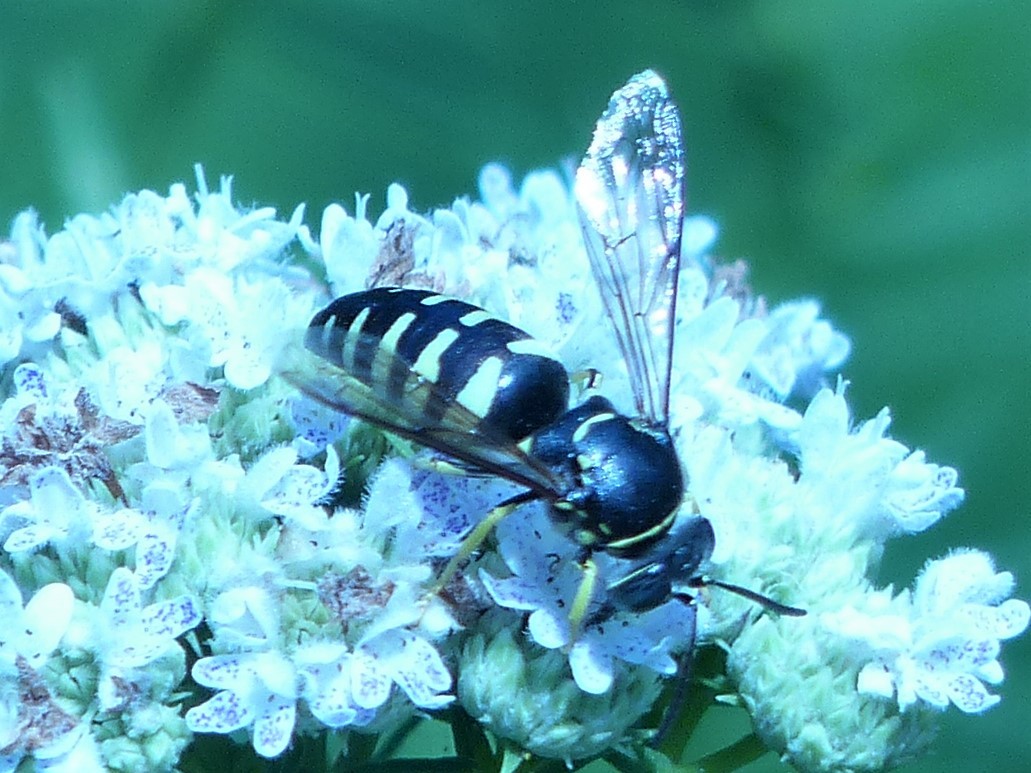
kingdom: Animalia
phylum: Arthropoda
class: Insecta
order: Hymenoptera
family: Crabronidae
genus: Bicyrtes
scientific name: Bicyrtes quadrifasciatus
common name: Four-banded stink bug hunter wasp
